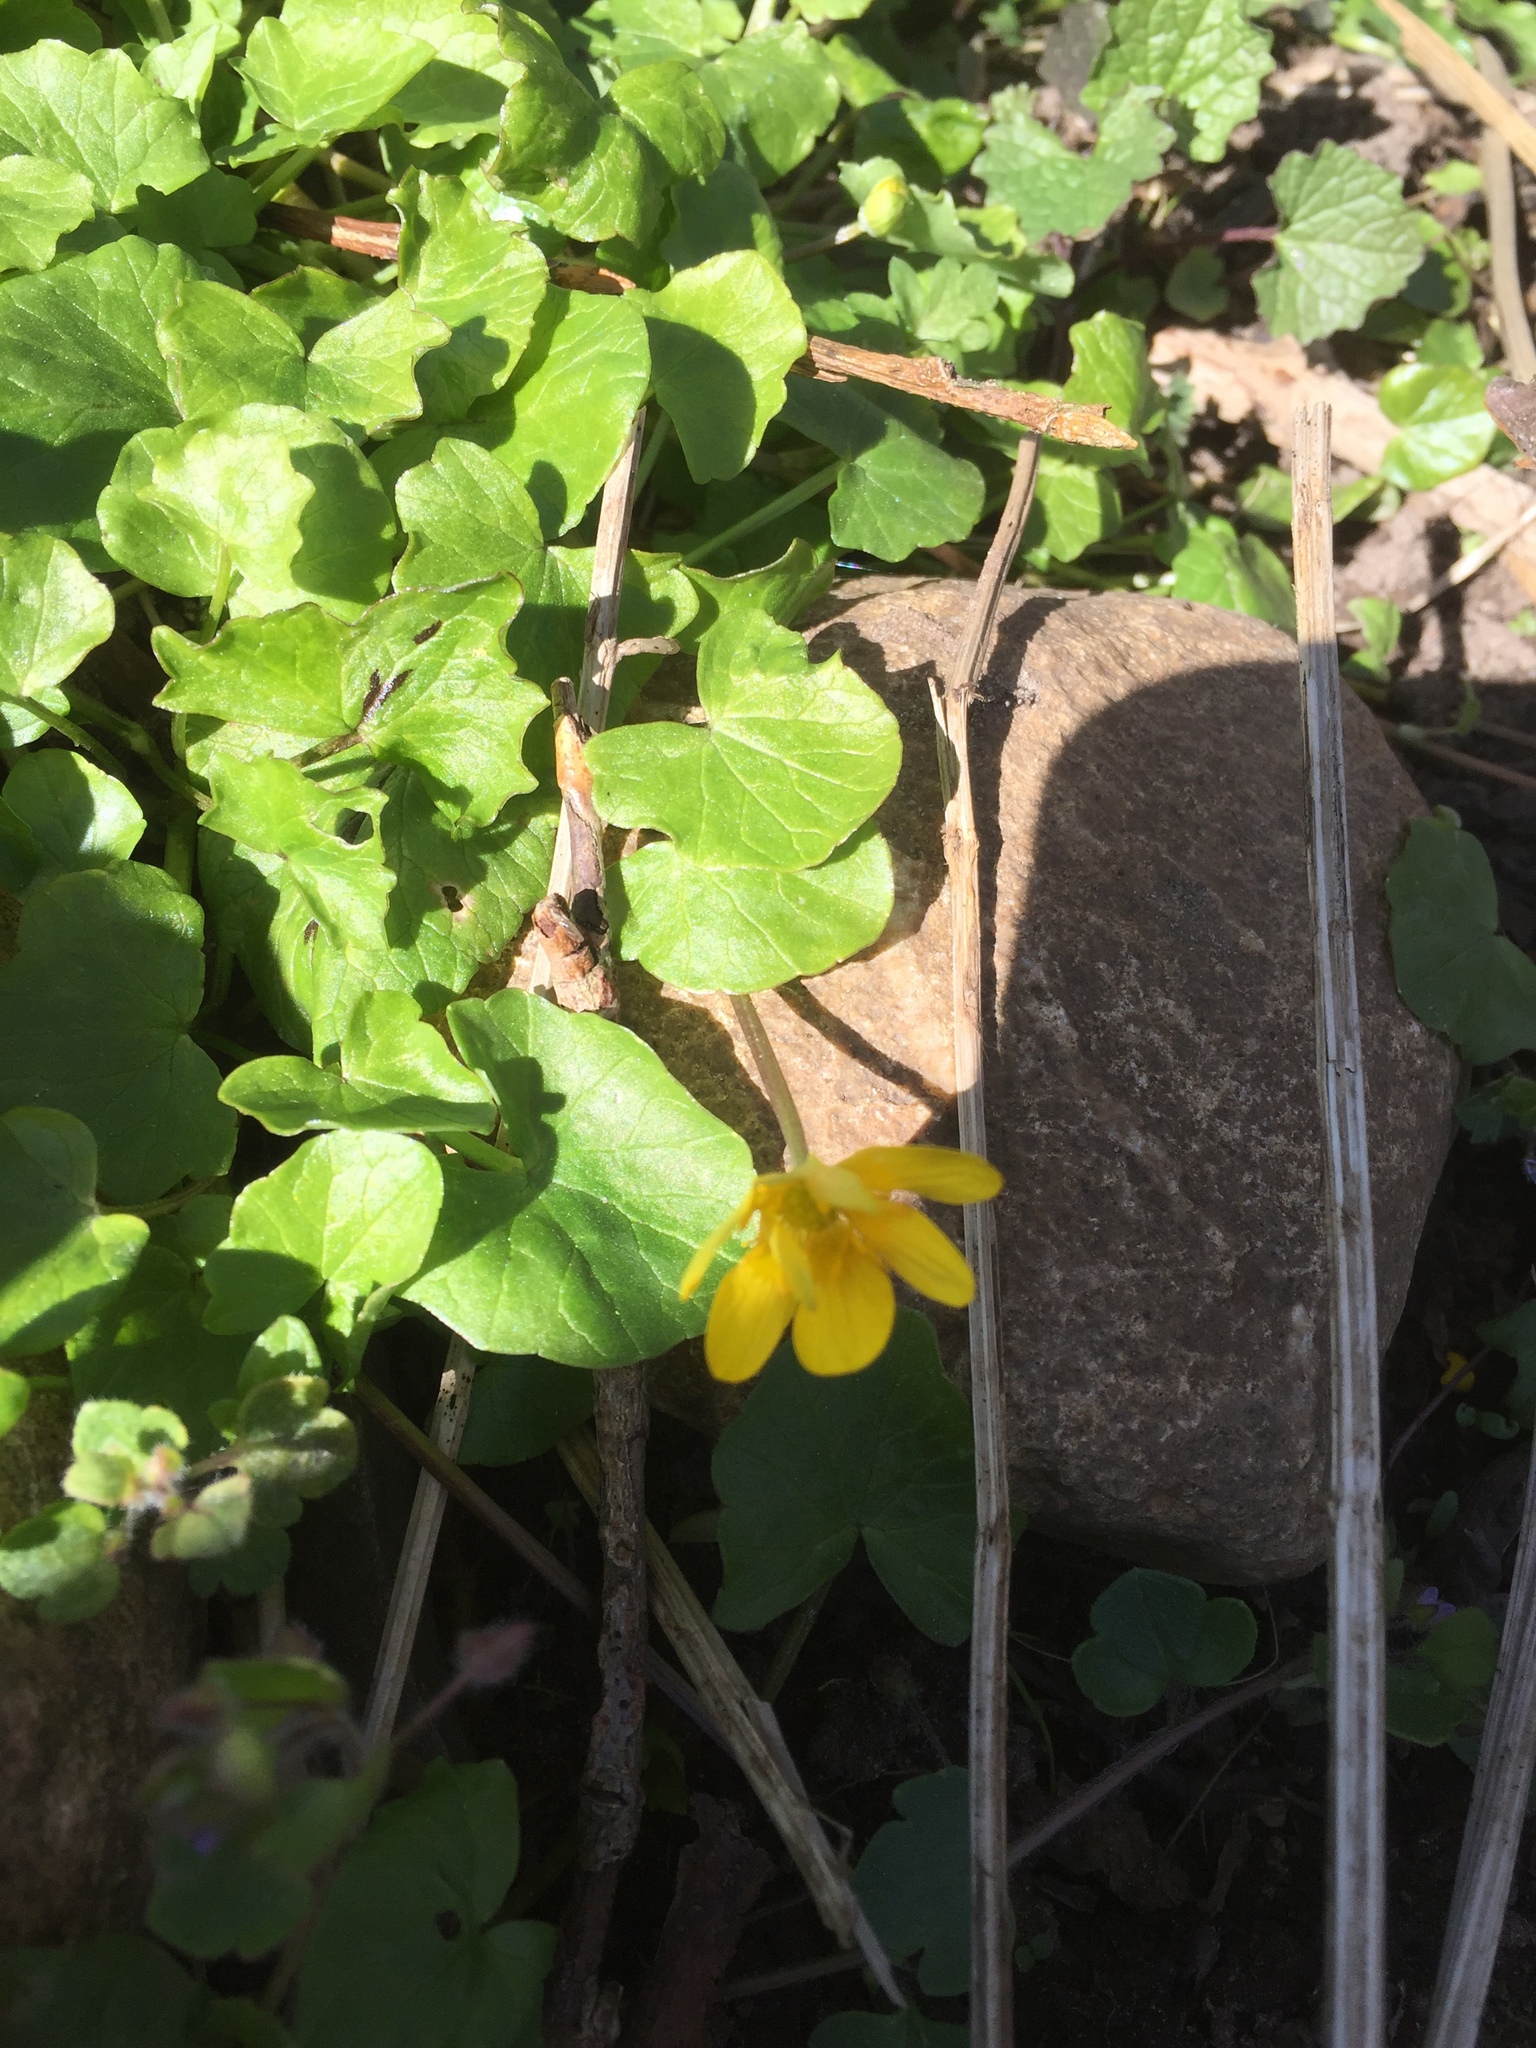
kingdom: Plantae
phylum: Tracheophyta
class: Magnoliopsida
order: Ranunculales
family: Ranunculaceae
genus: Ficaria
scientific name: Ficaria verna
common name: Lesser celandine
